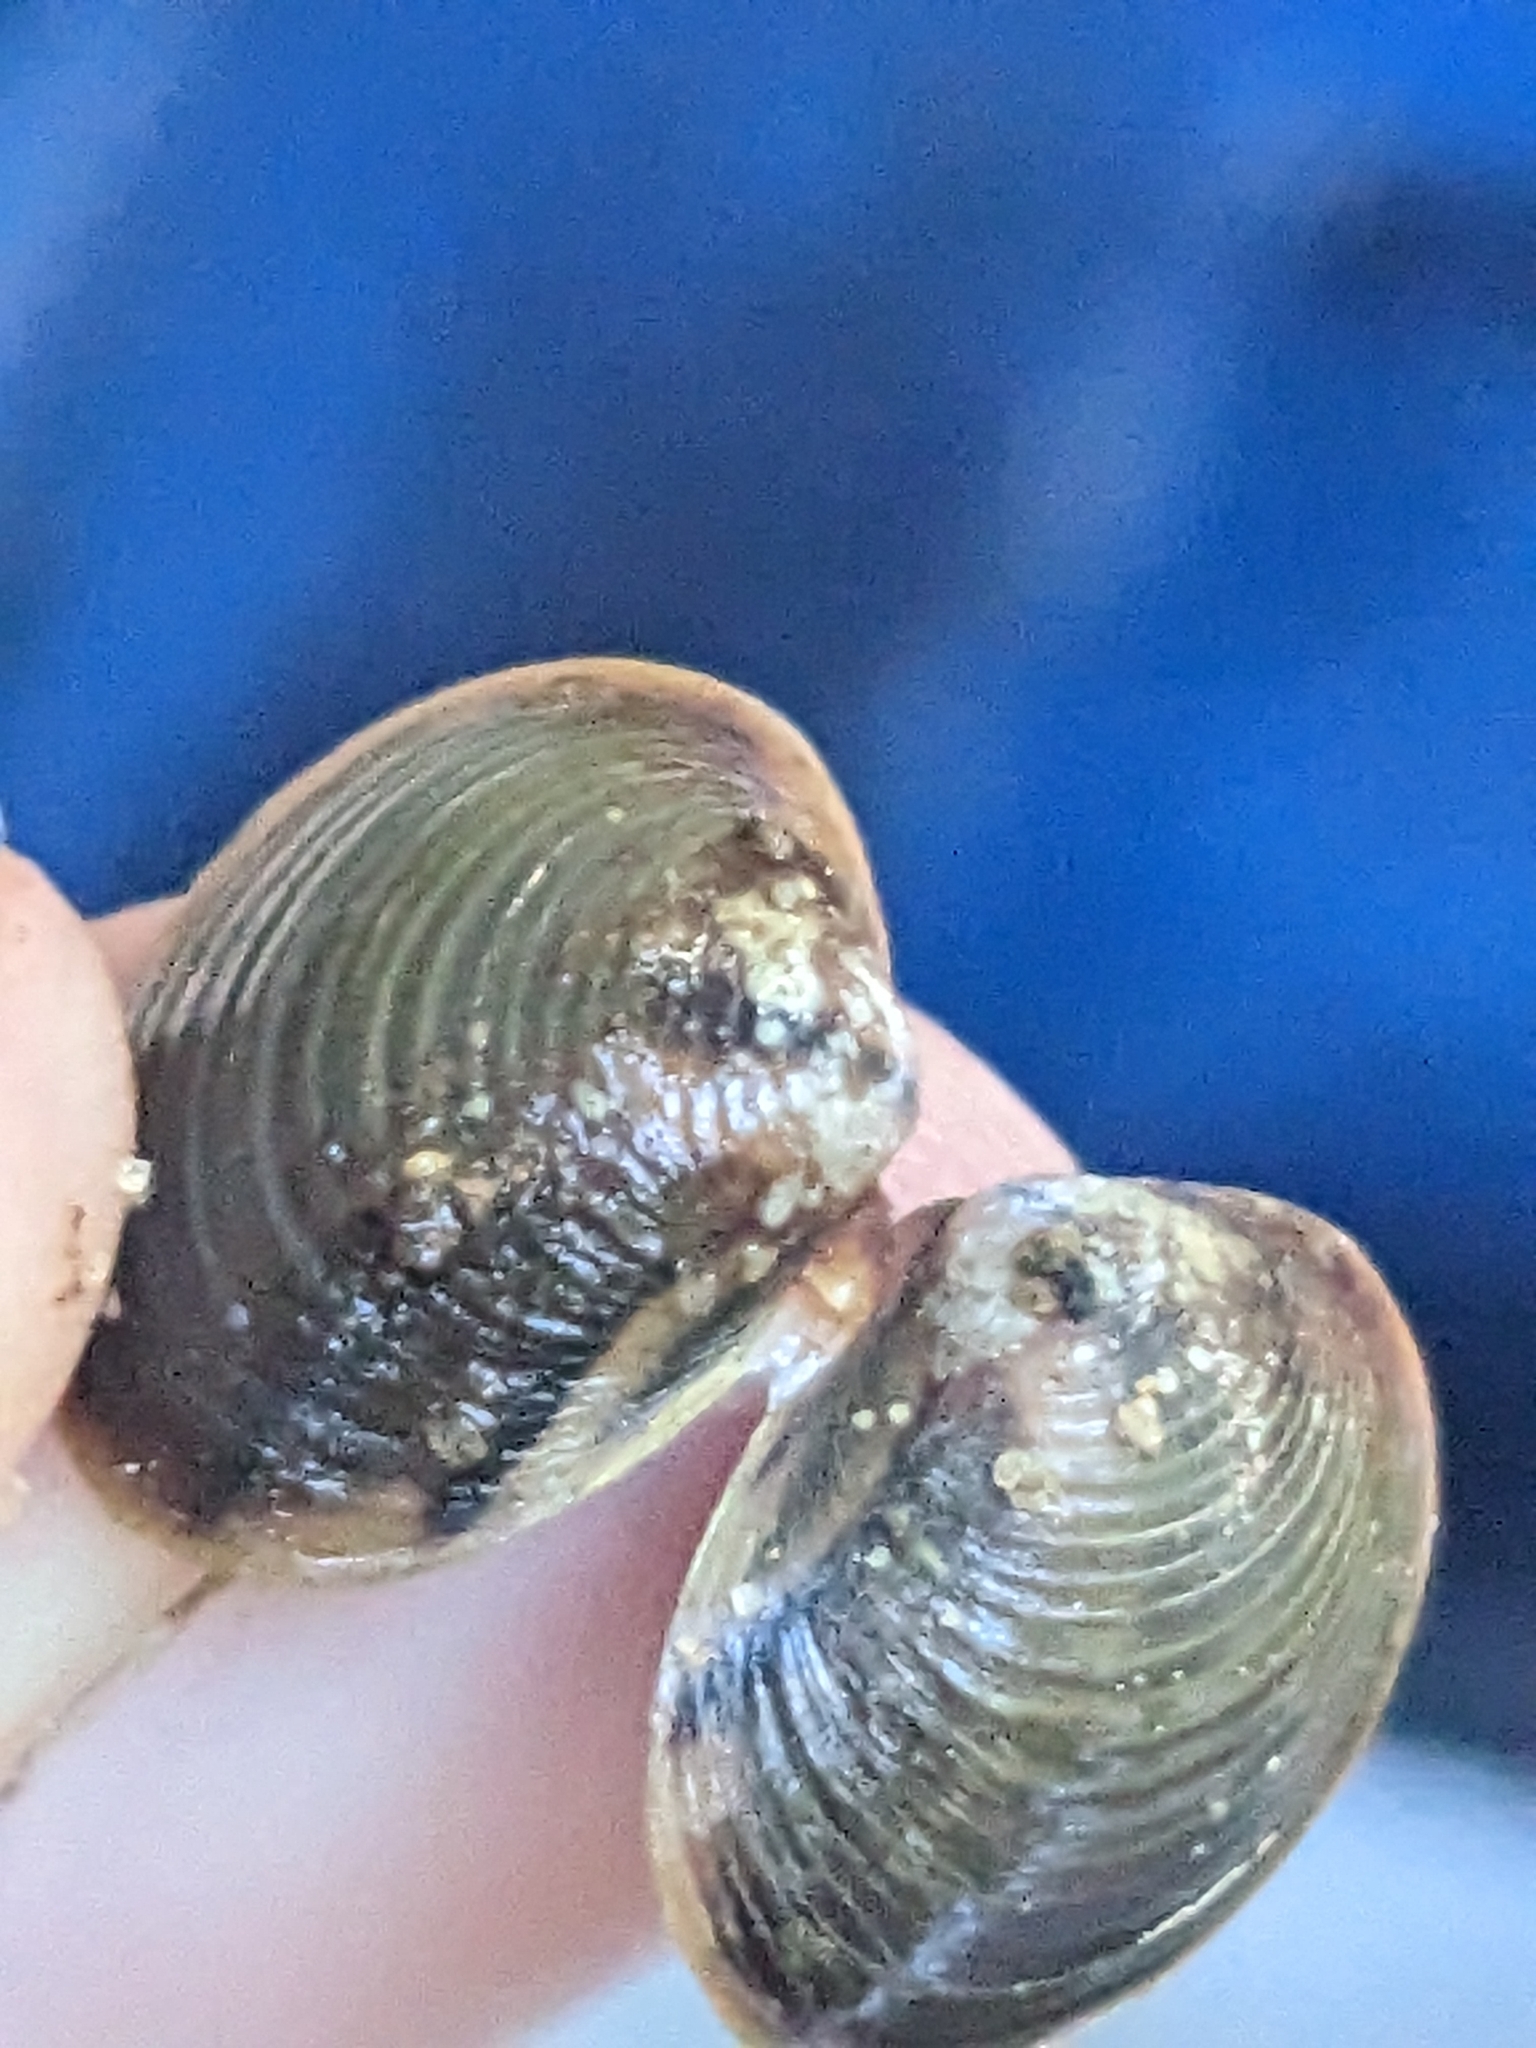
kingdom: Animalia
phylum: Mollusca
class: Bivalvia
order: Venerida
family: Cyrenidae
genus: Corbicula
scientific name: Corbicula australis
